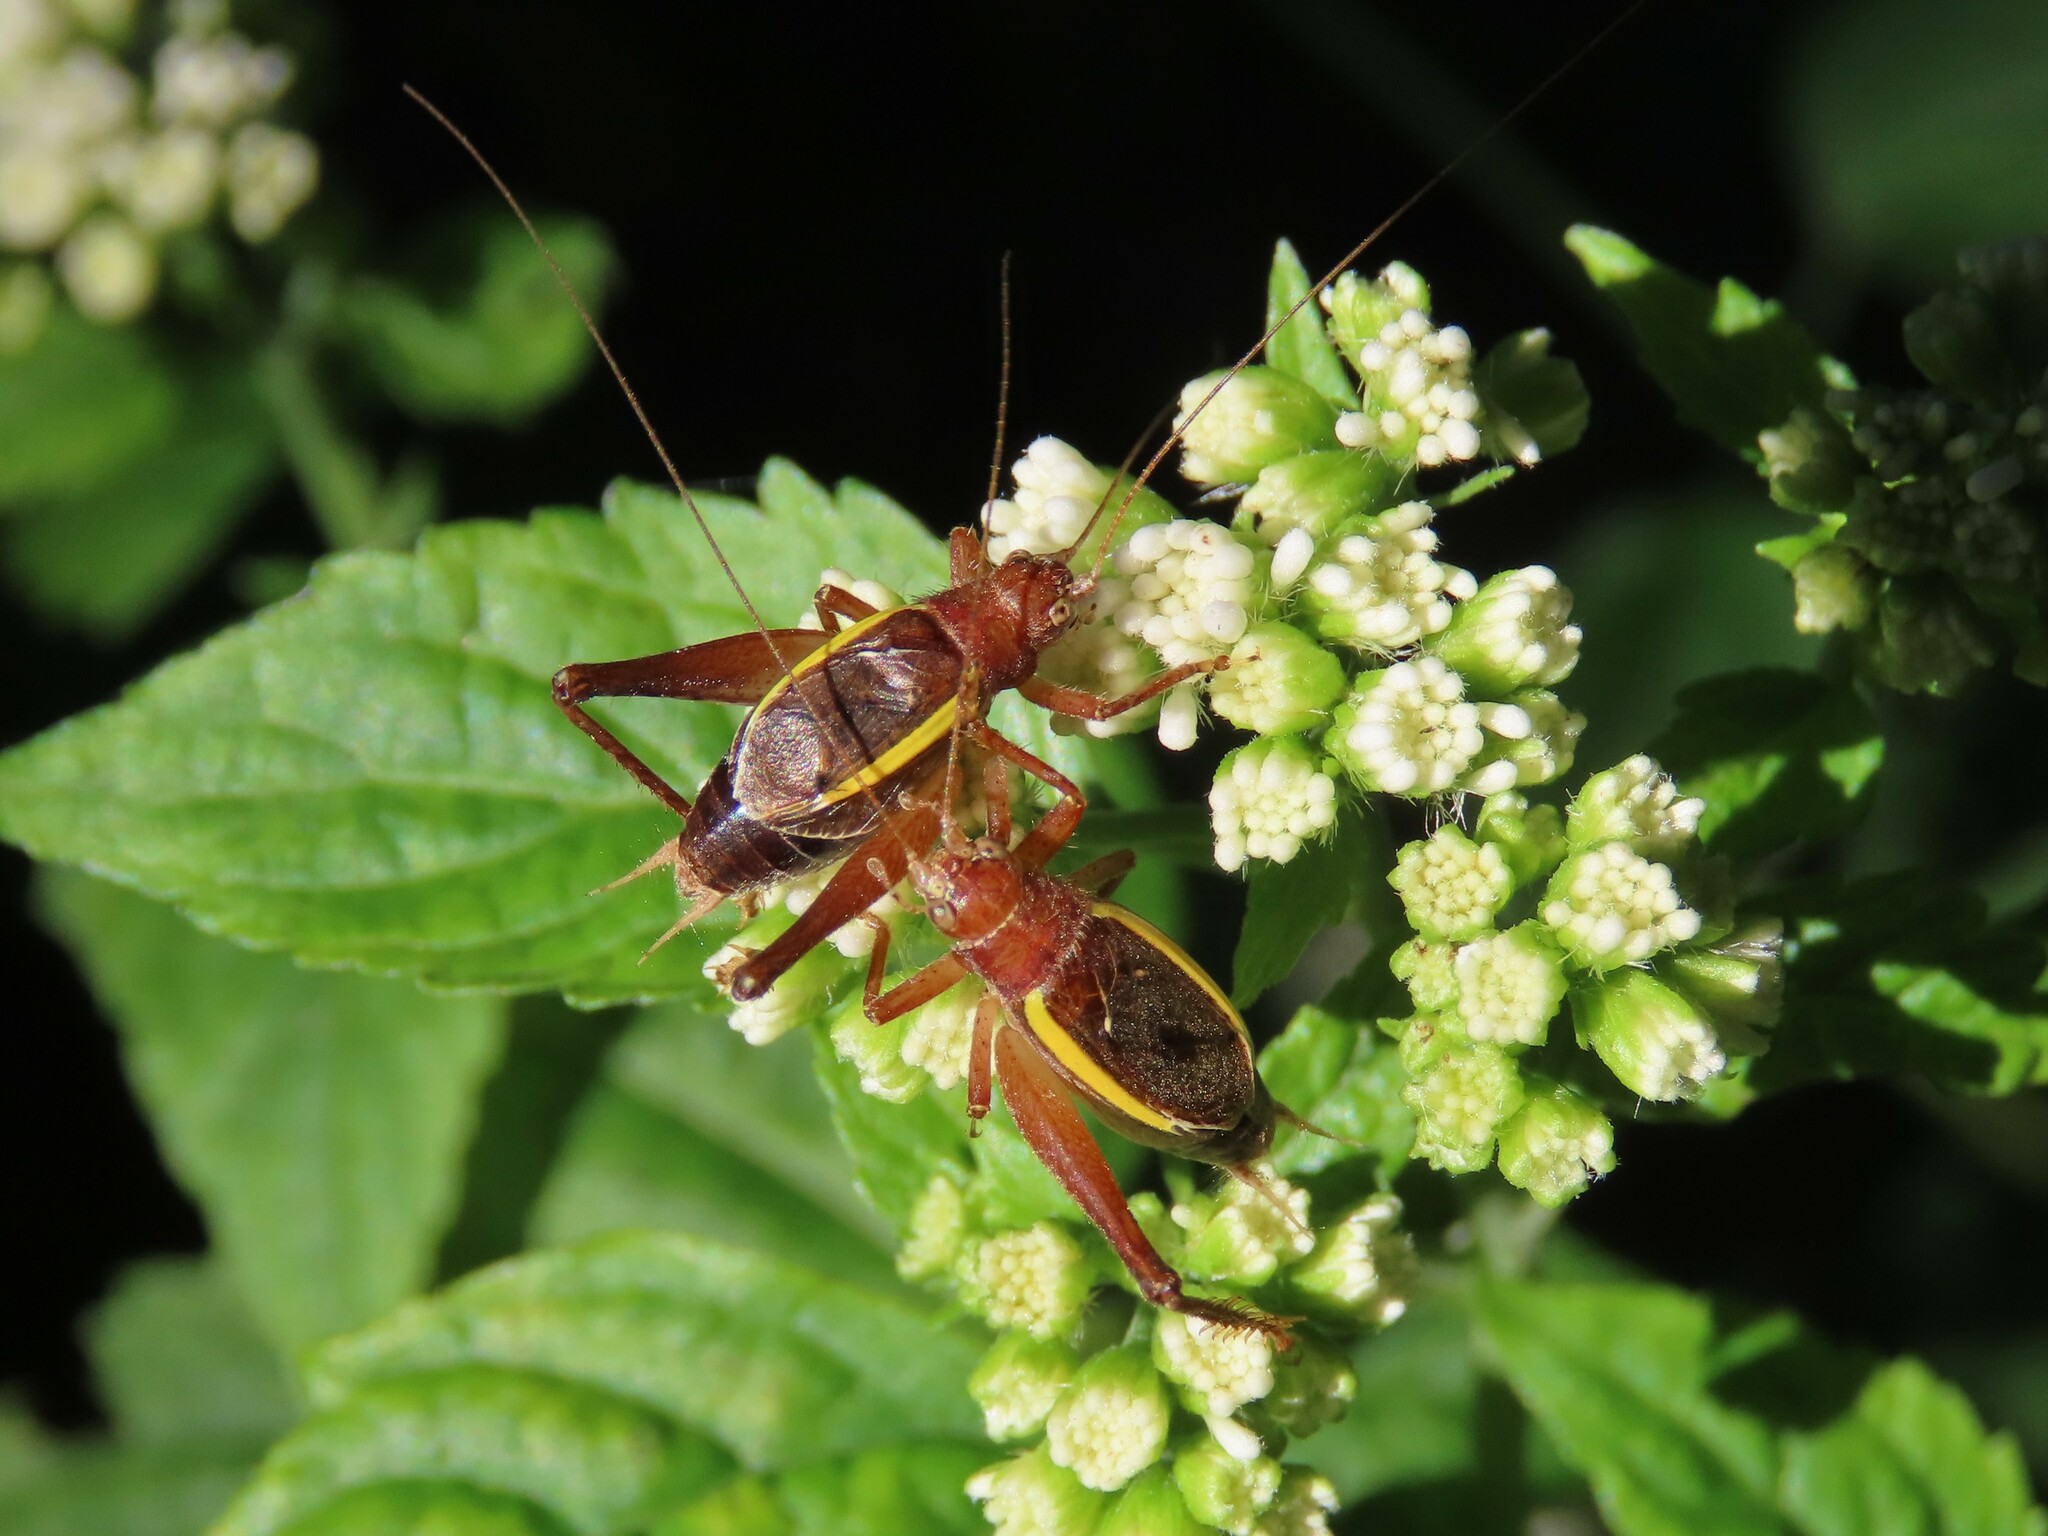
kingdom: Animalia
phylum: Arthropoda
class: Insecta
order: Orthoptera
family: Gryllidae
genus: Hapithus
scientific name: Hapithus agitator
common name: Restless bush cricket
